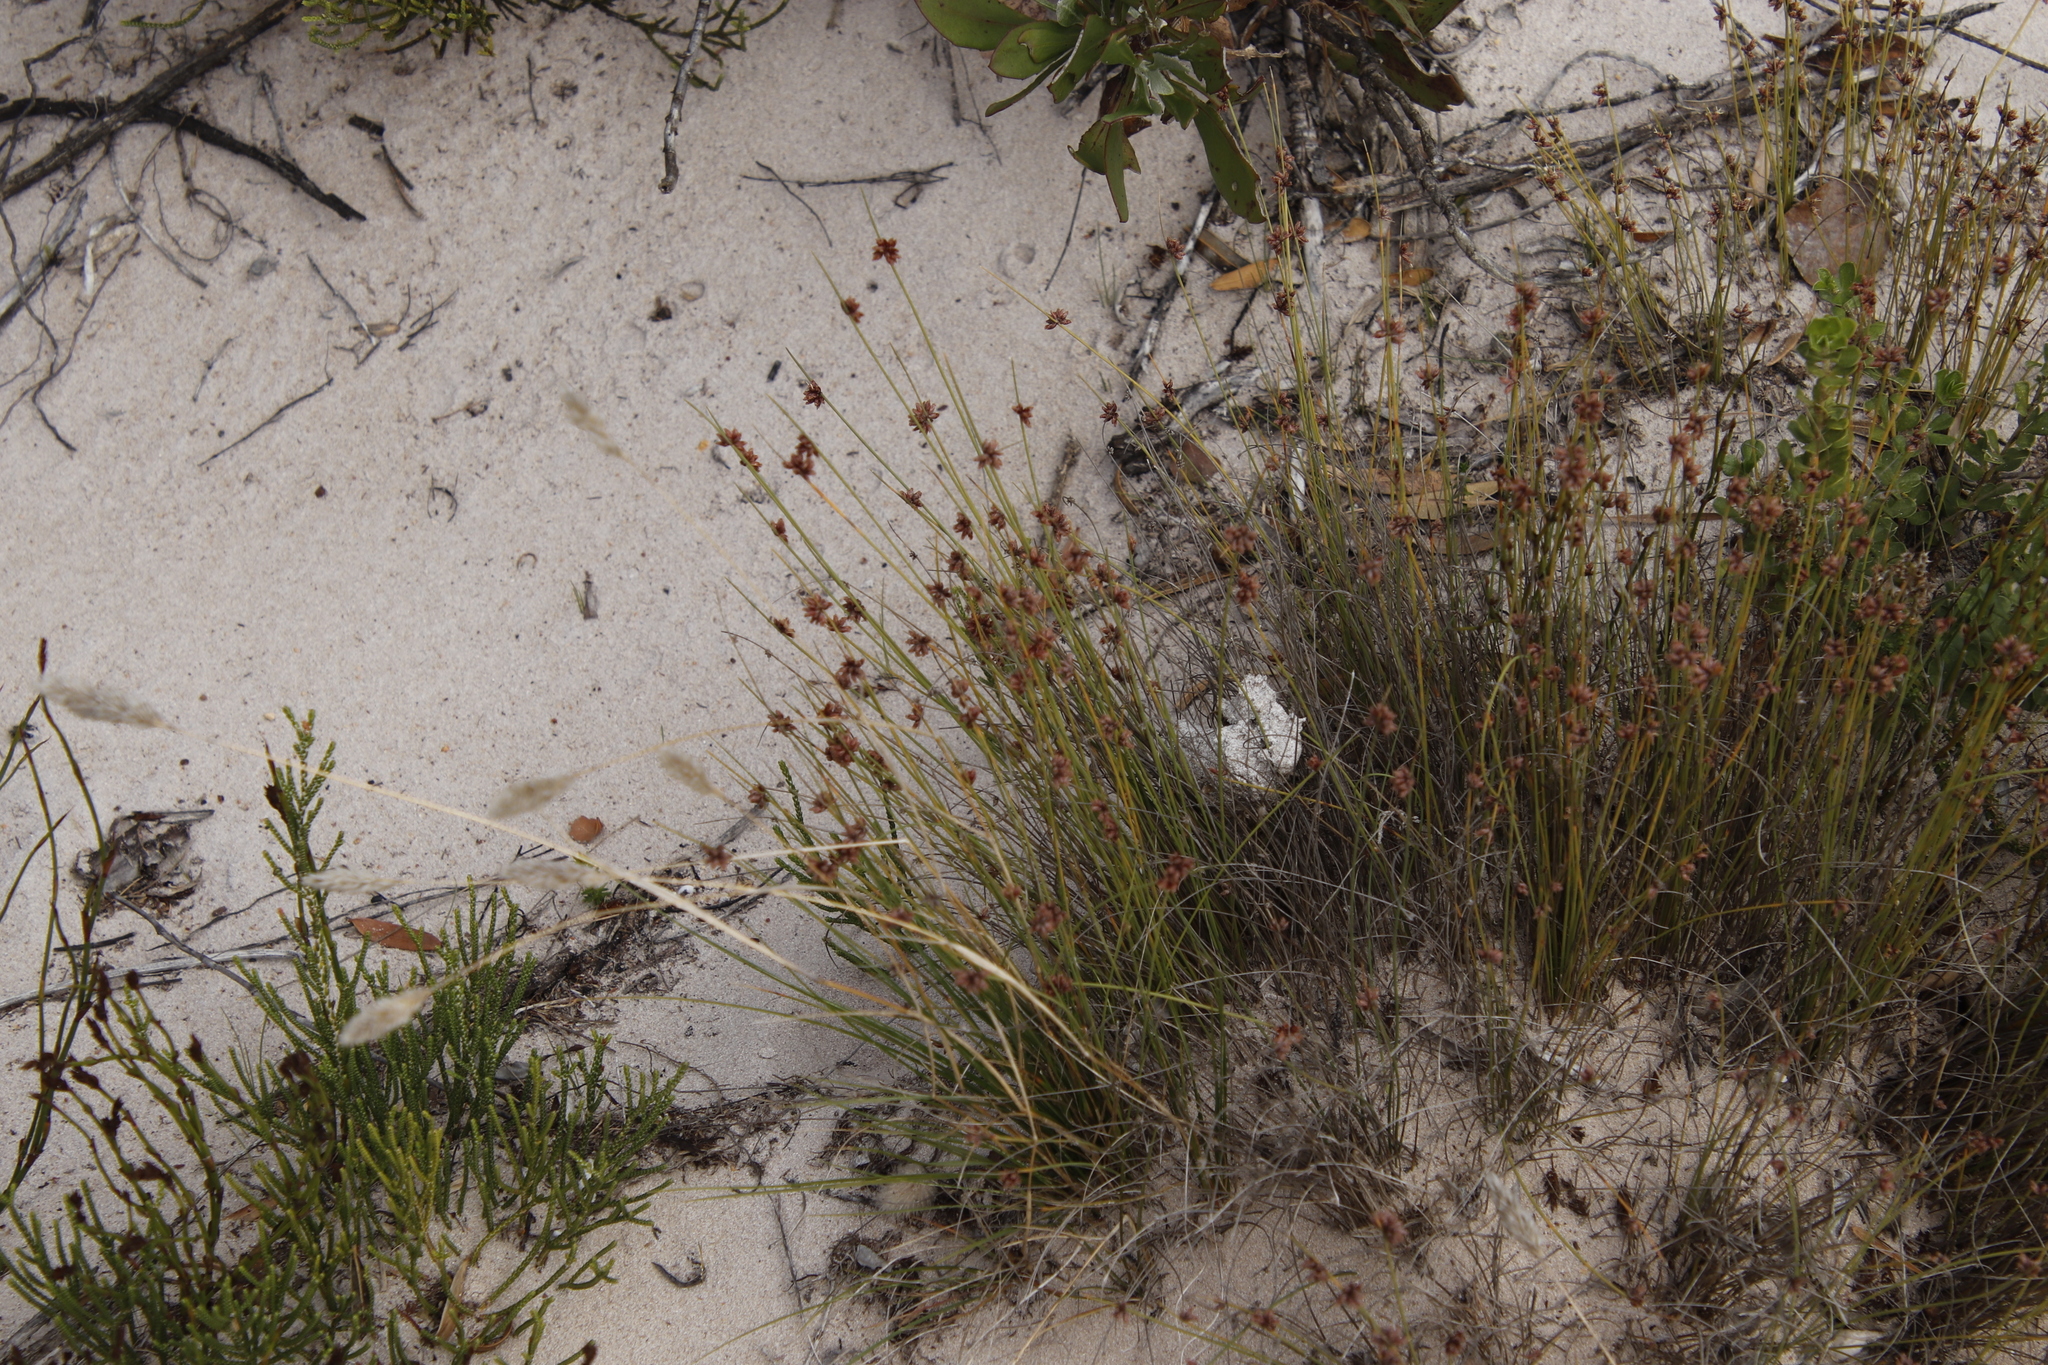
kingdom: Plantae
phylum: Tracheophyta
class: Liliopsida
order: Poales
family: Cyperaceae
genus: Ficinia
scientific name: Ficinia lateralis
